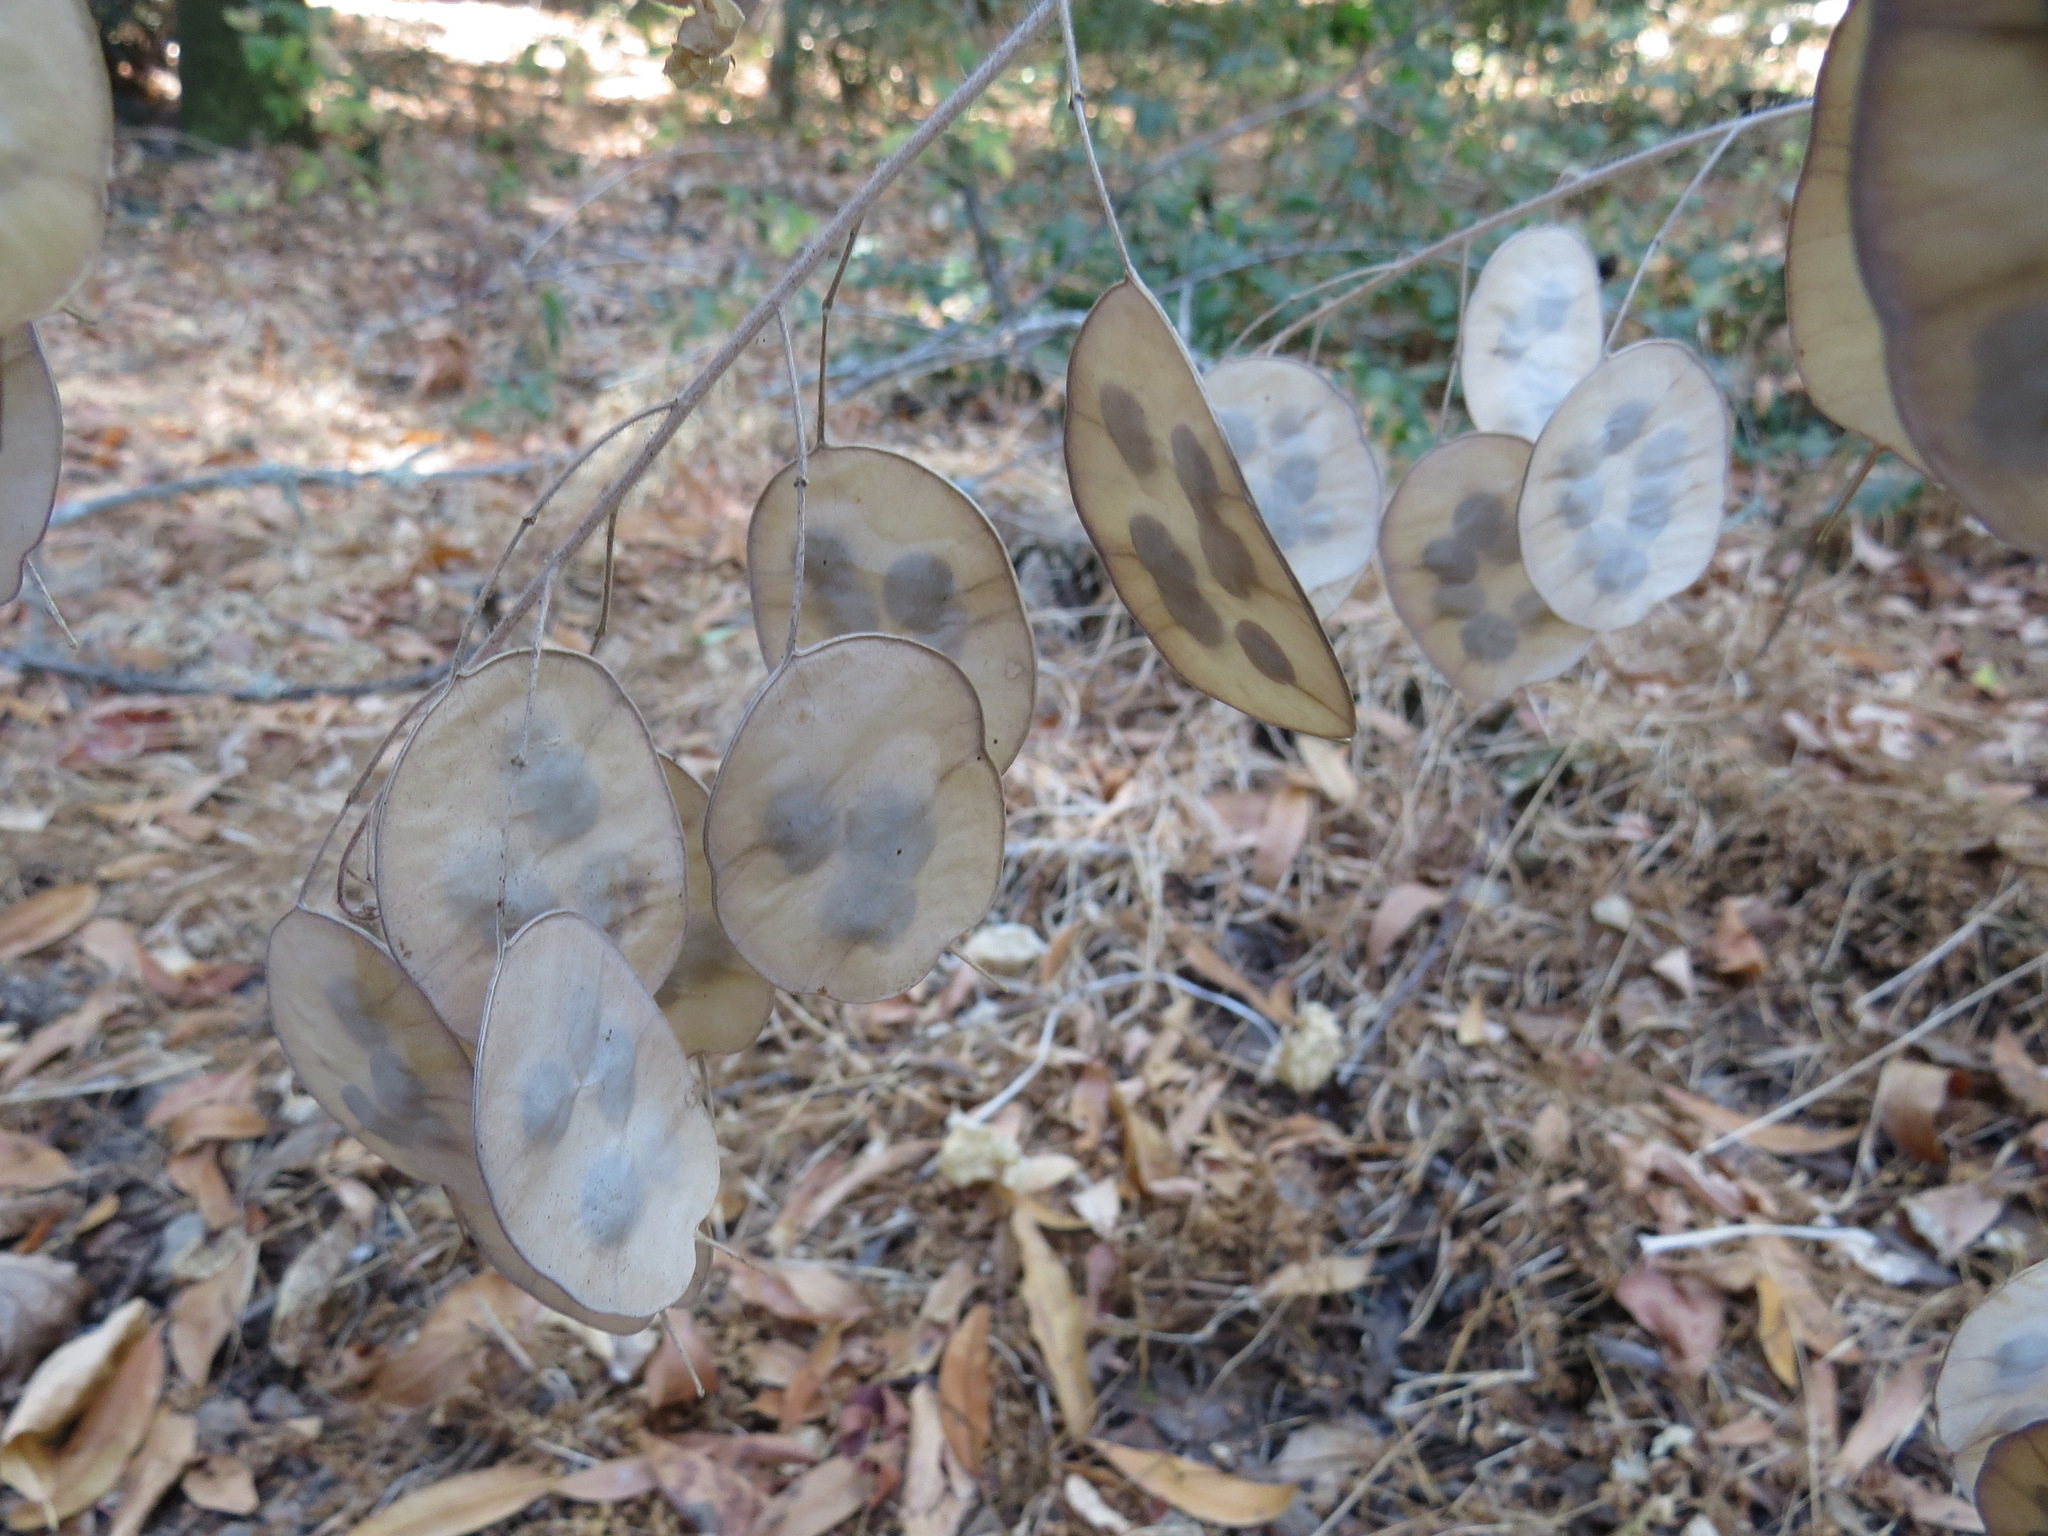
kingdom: Plantae
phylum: Tracheophyta
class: Magnoliopsida
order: Brassicales
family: Brassicaceae
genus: Lunaria
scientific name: Lunaria annua
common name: Honesty
